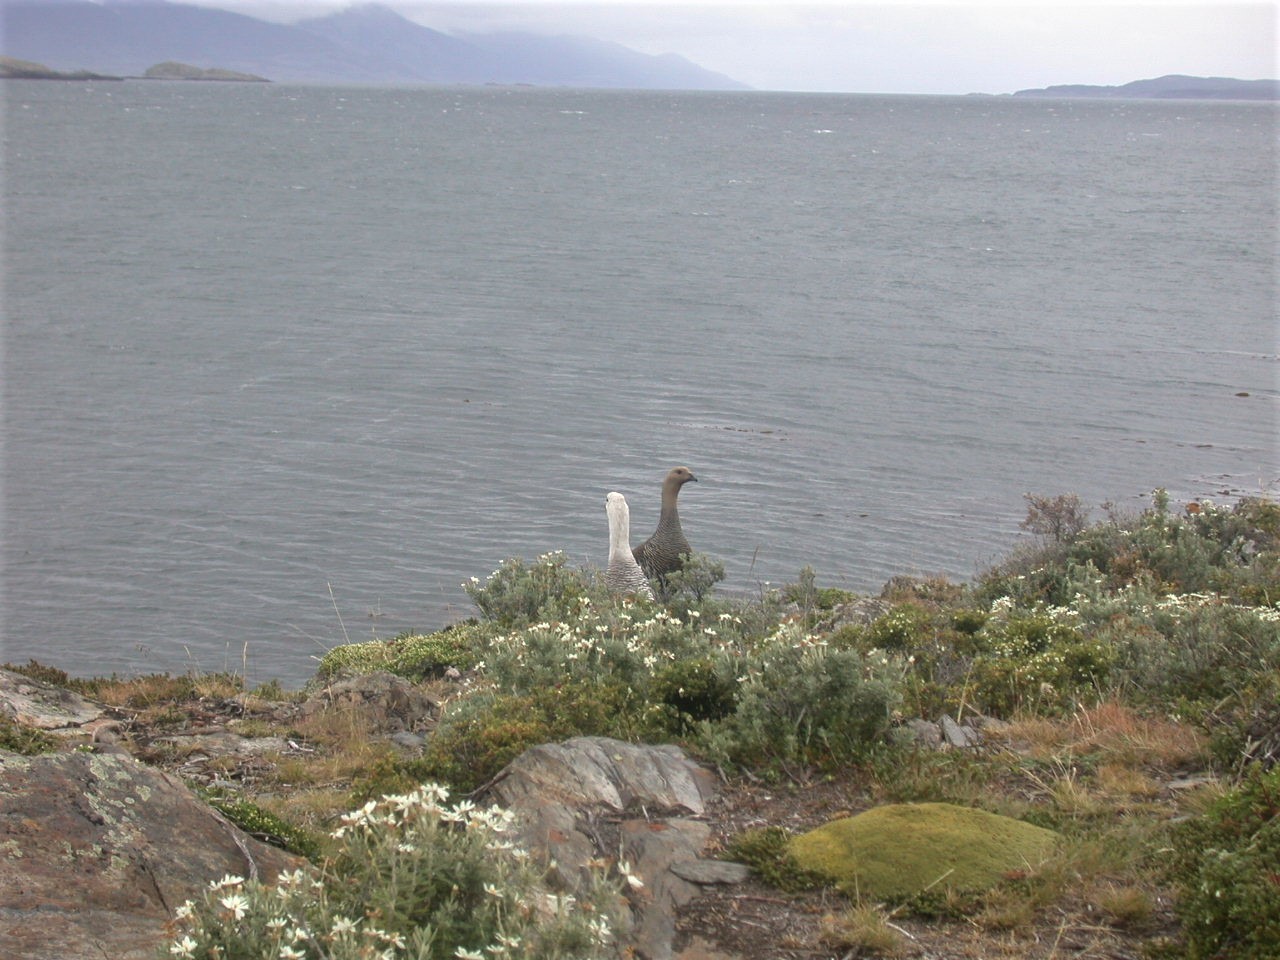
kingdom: Animalia
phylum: Chordata
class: Aves
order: Anseriformes
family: Anatidae
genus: Chloephaga
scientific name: Chloephaga picta
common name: Upland goose
